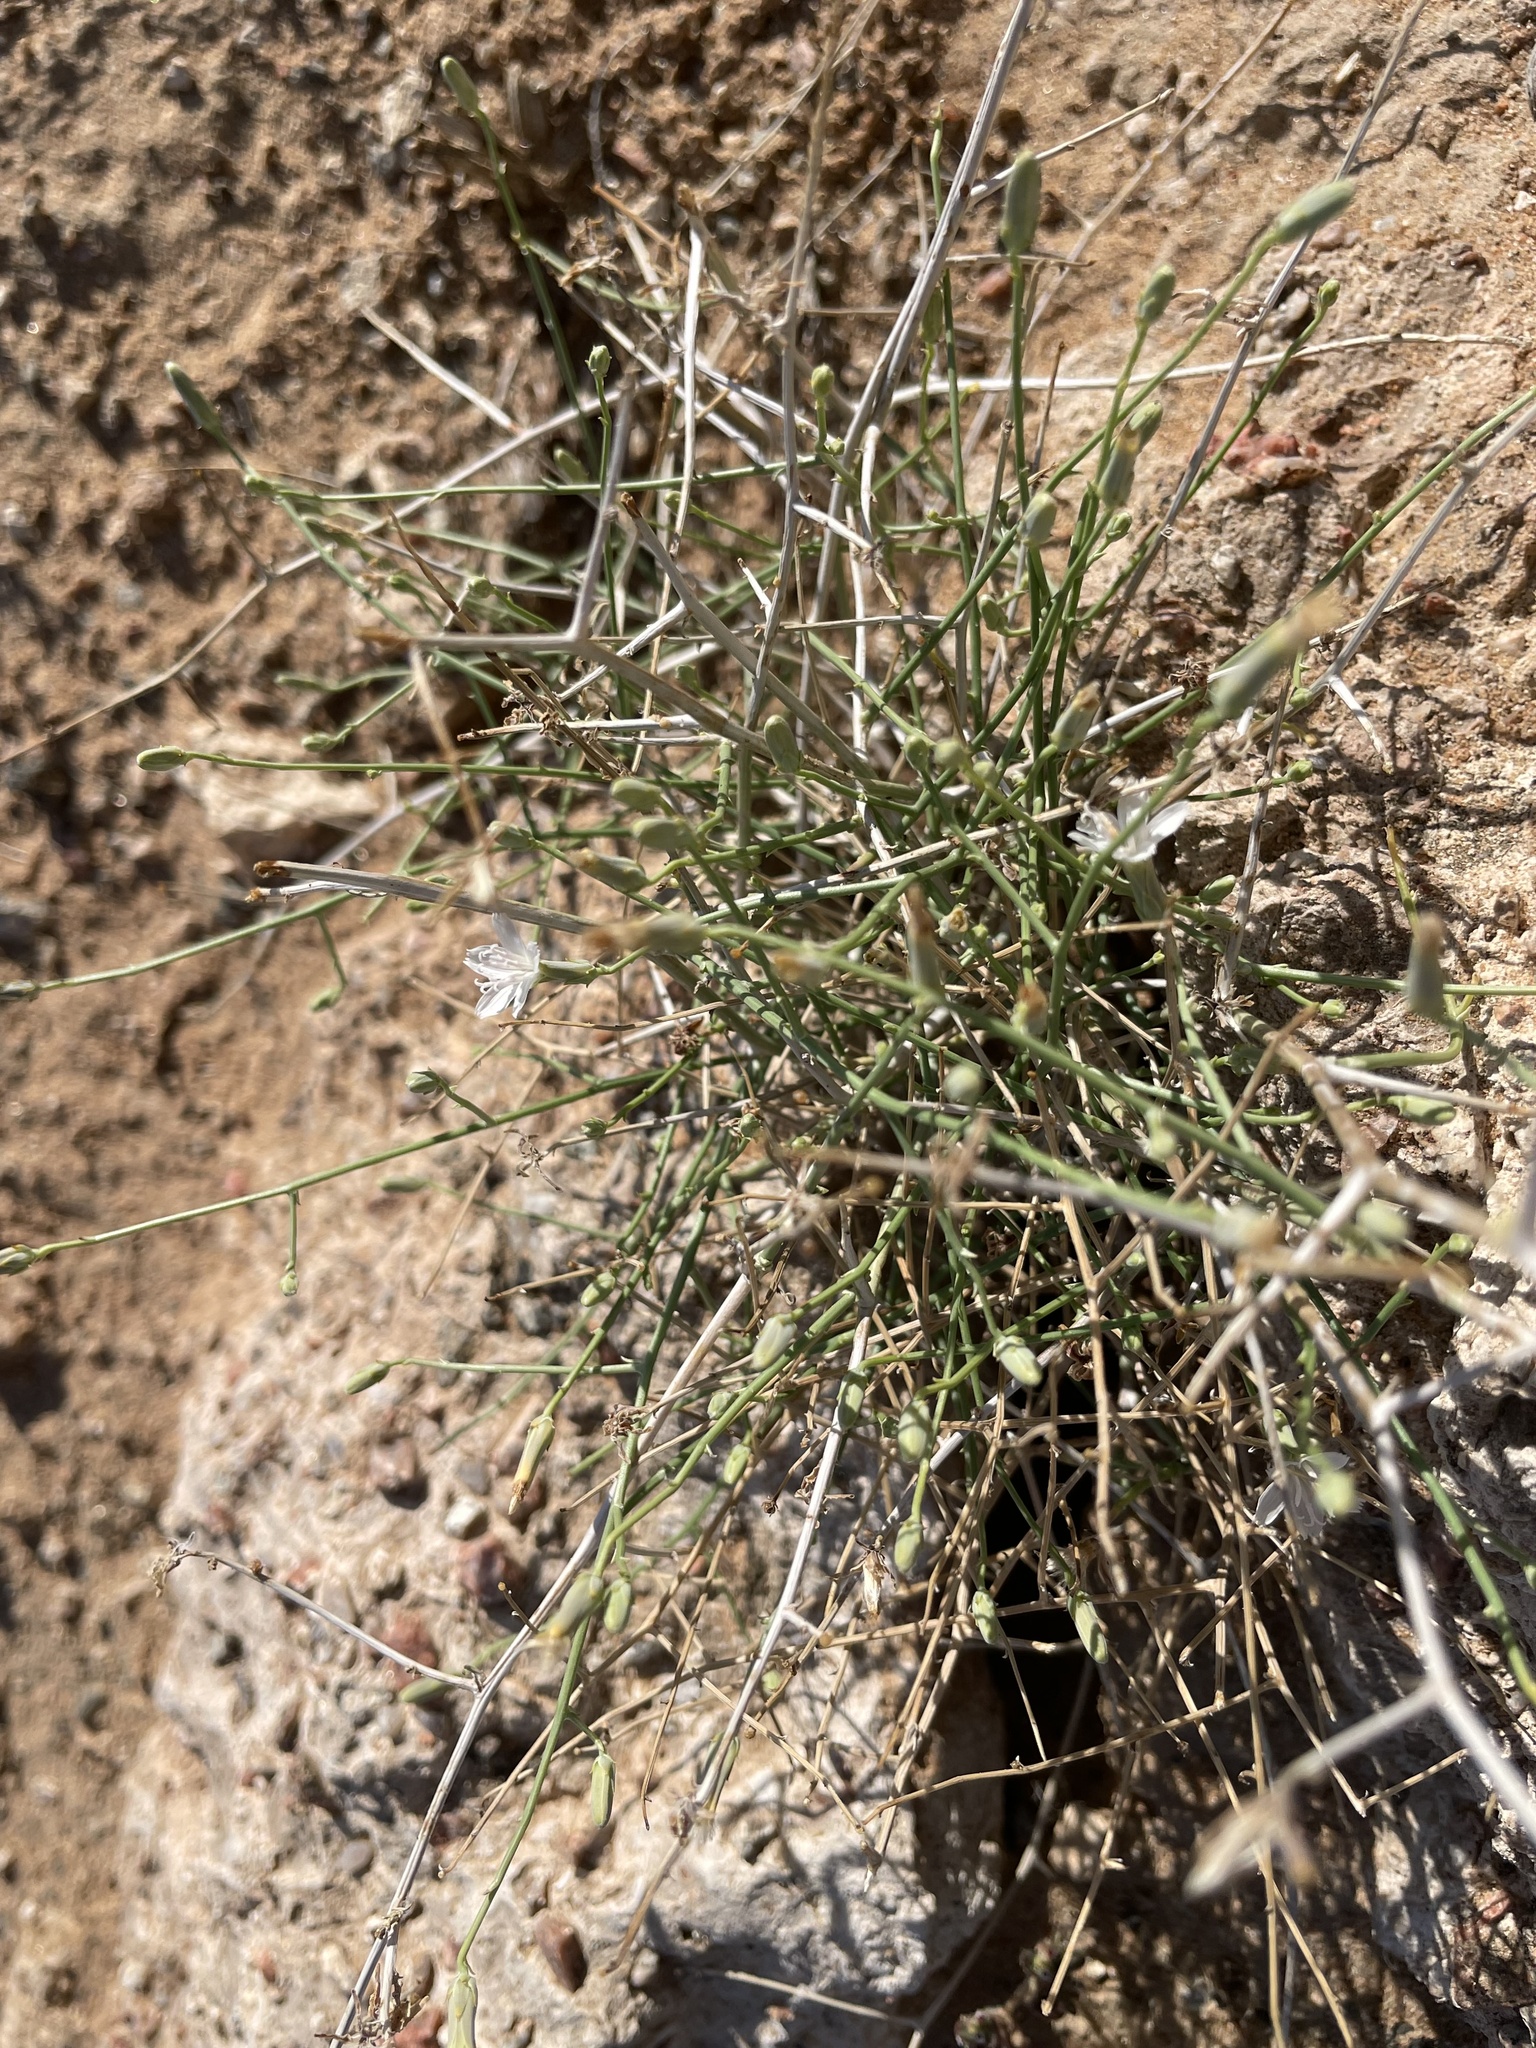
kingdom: Plantae
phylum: Tracheophyta
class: Magnoliopsida
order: Asterales
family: Asteraceae
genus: Stephanomeria
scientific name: Stephanomeria pauciflora
